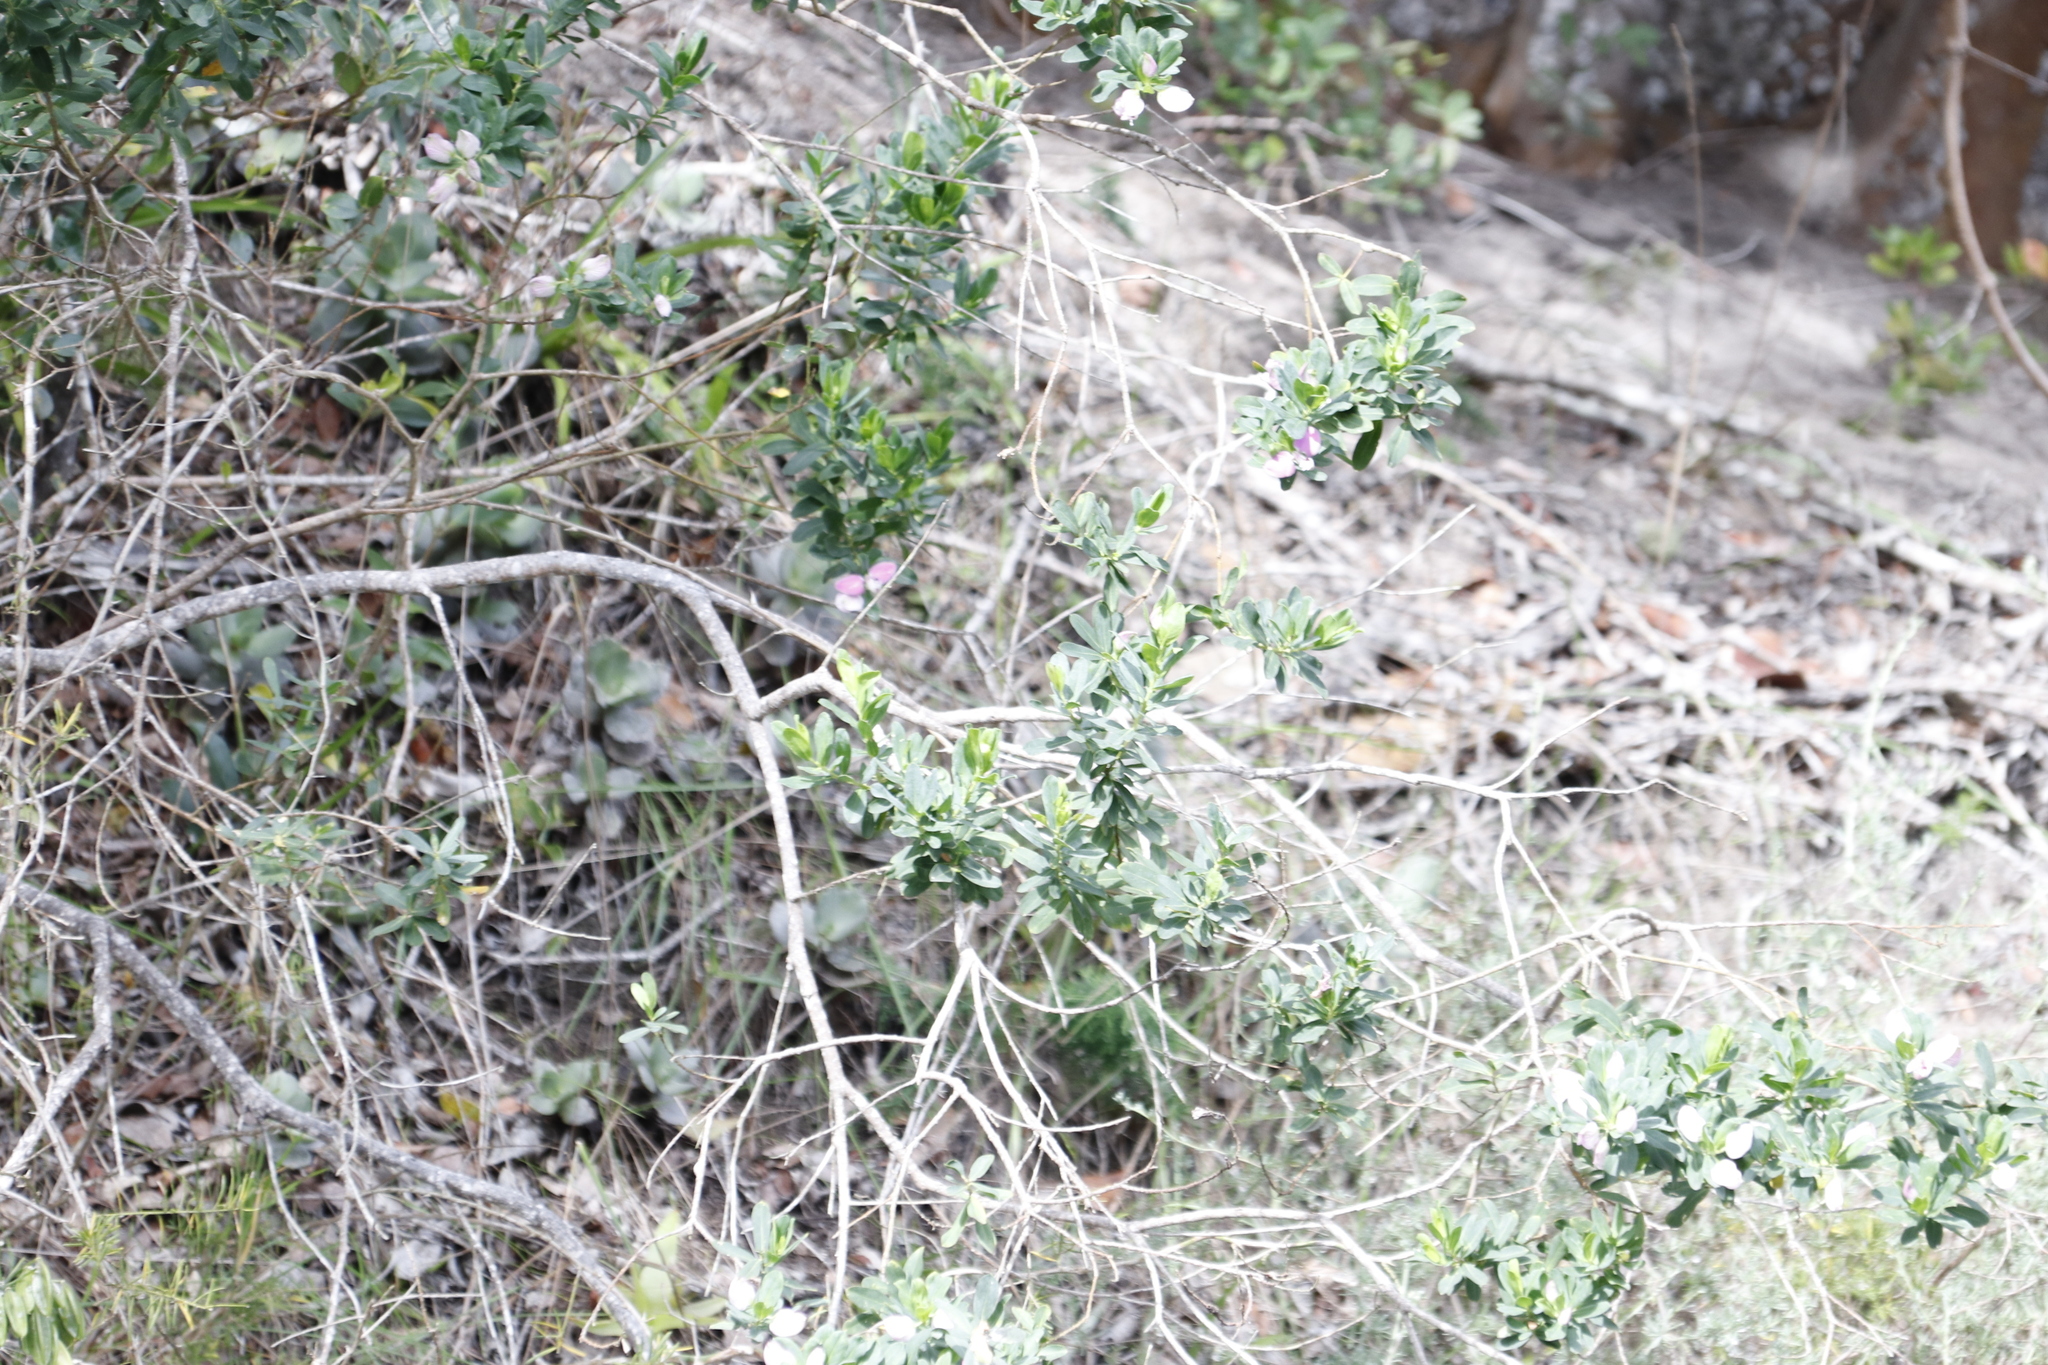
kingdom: Plantae
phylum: Tracheophyta
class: Magnoliopsida
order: Fabales
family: Polygalaceae
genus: Polygala
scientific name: Polygala myrtifolia
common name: Myrtle-leaf milkwort
